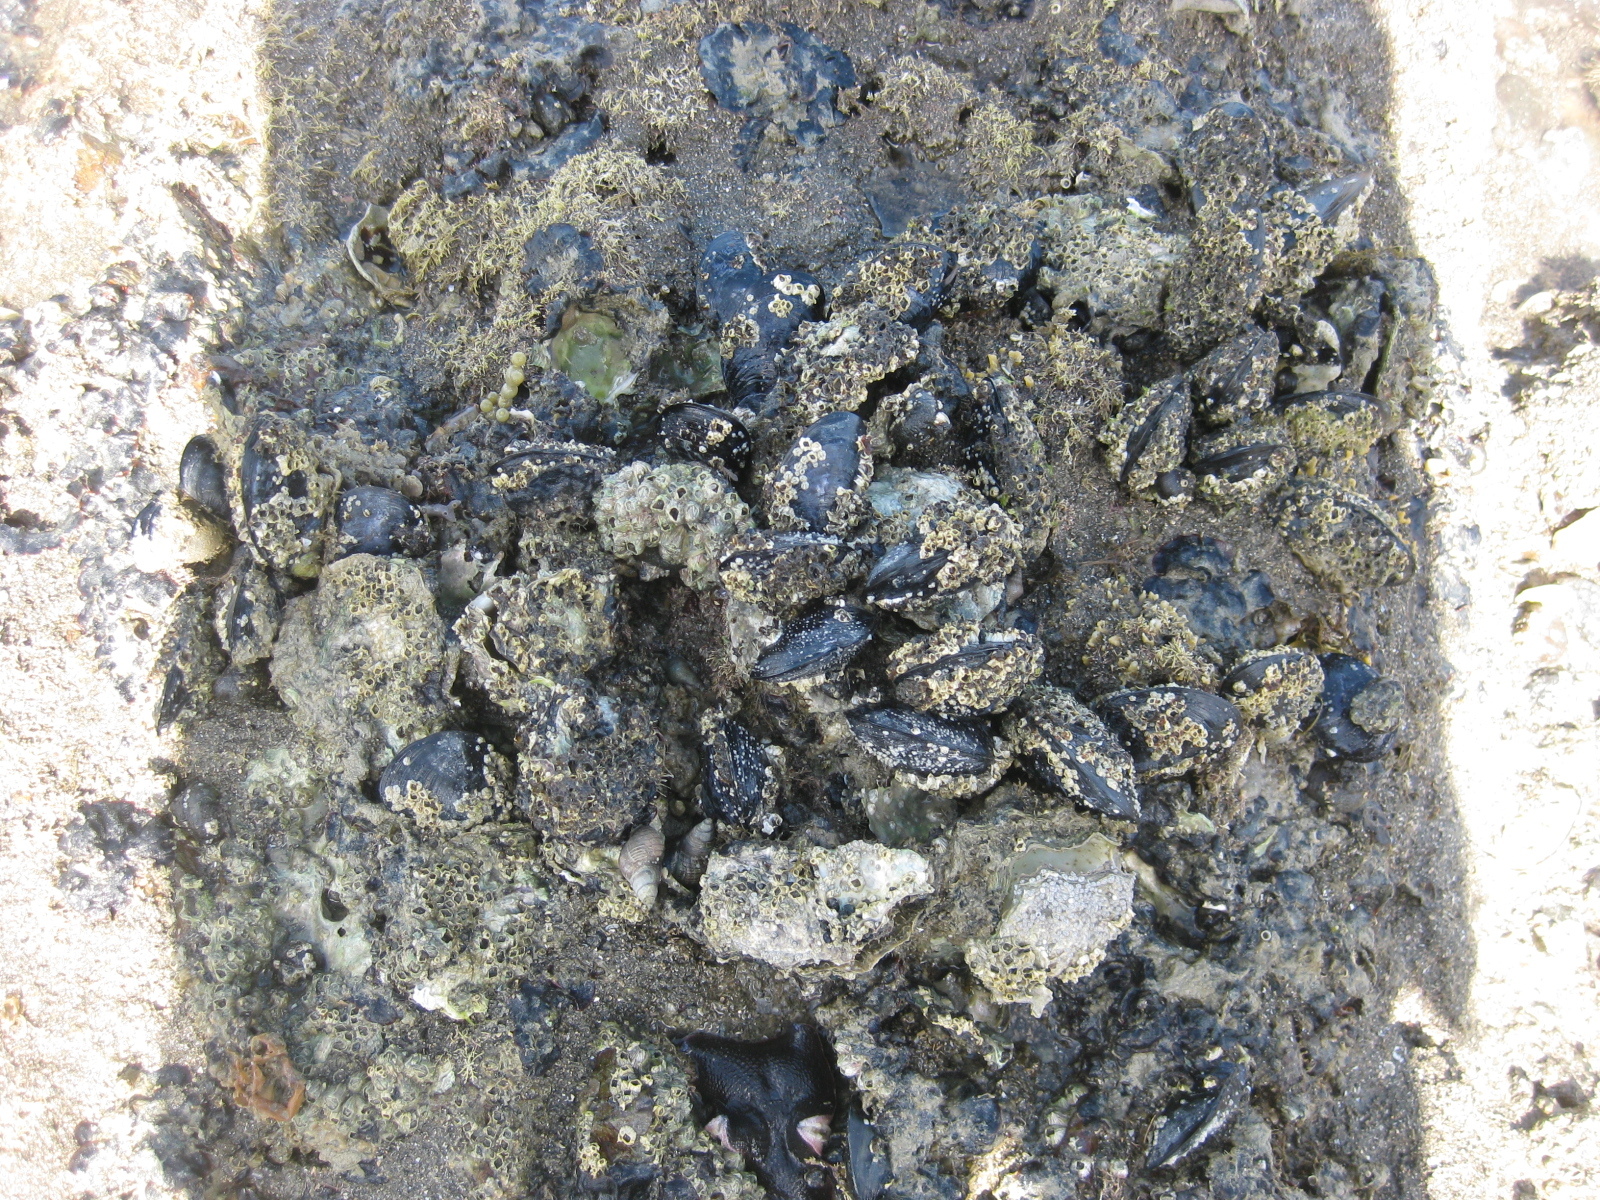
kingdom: Animalia
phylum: Mollusca
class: Bivalvia
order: Mytilida
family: Mytilidae
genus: Mytilus
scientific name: Mytilus planulatus
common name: Australian mussel
